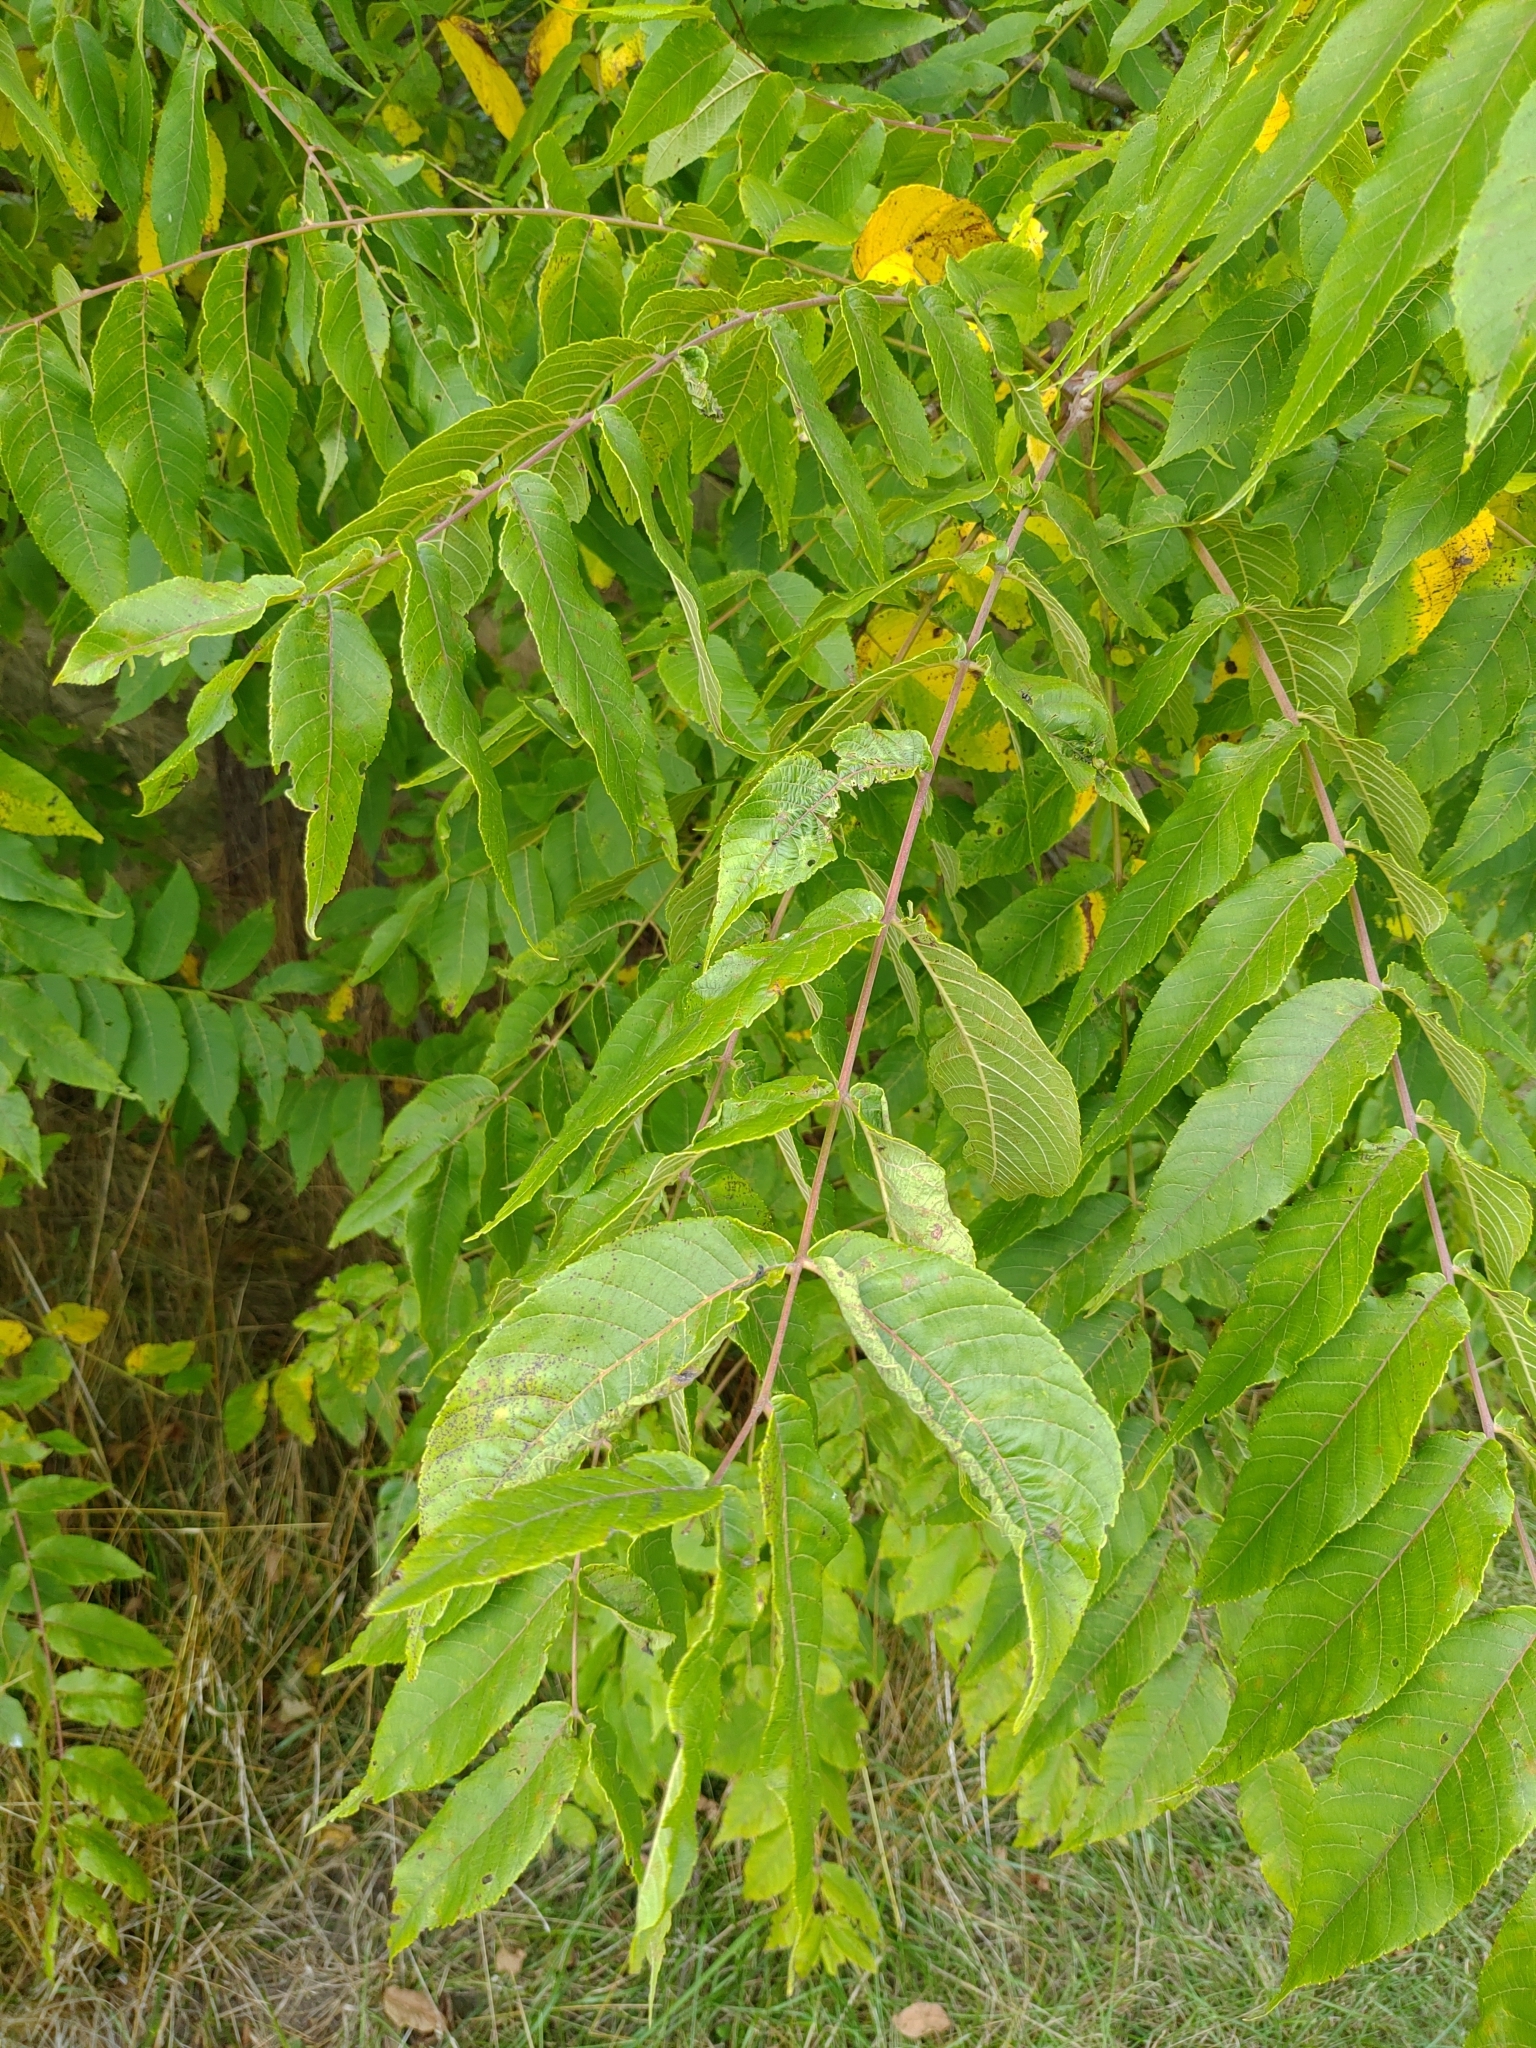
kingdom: Plantae
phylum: Tracheophyta
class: Magnoliopsida
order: Fagales
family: Juglandaceae
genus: Juglans
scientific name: Juglans nigra
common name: Black walnut
